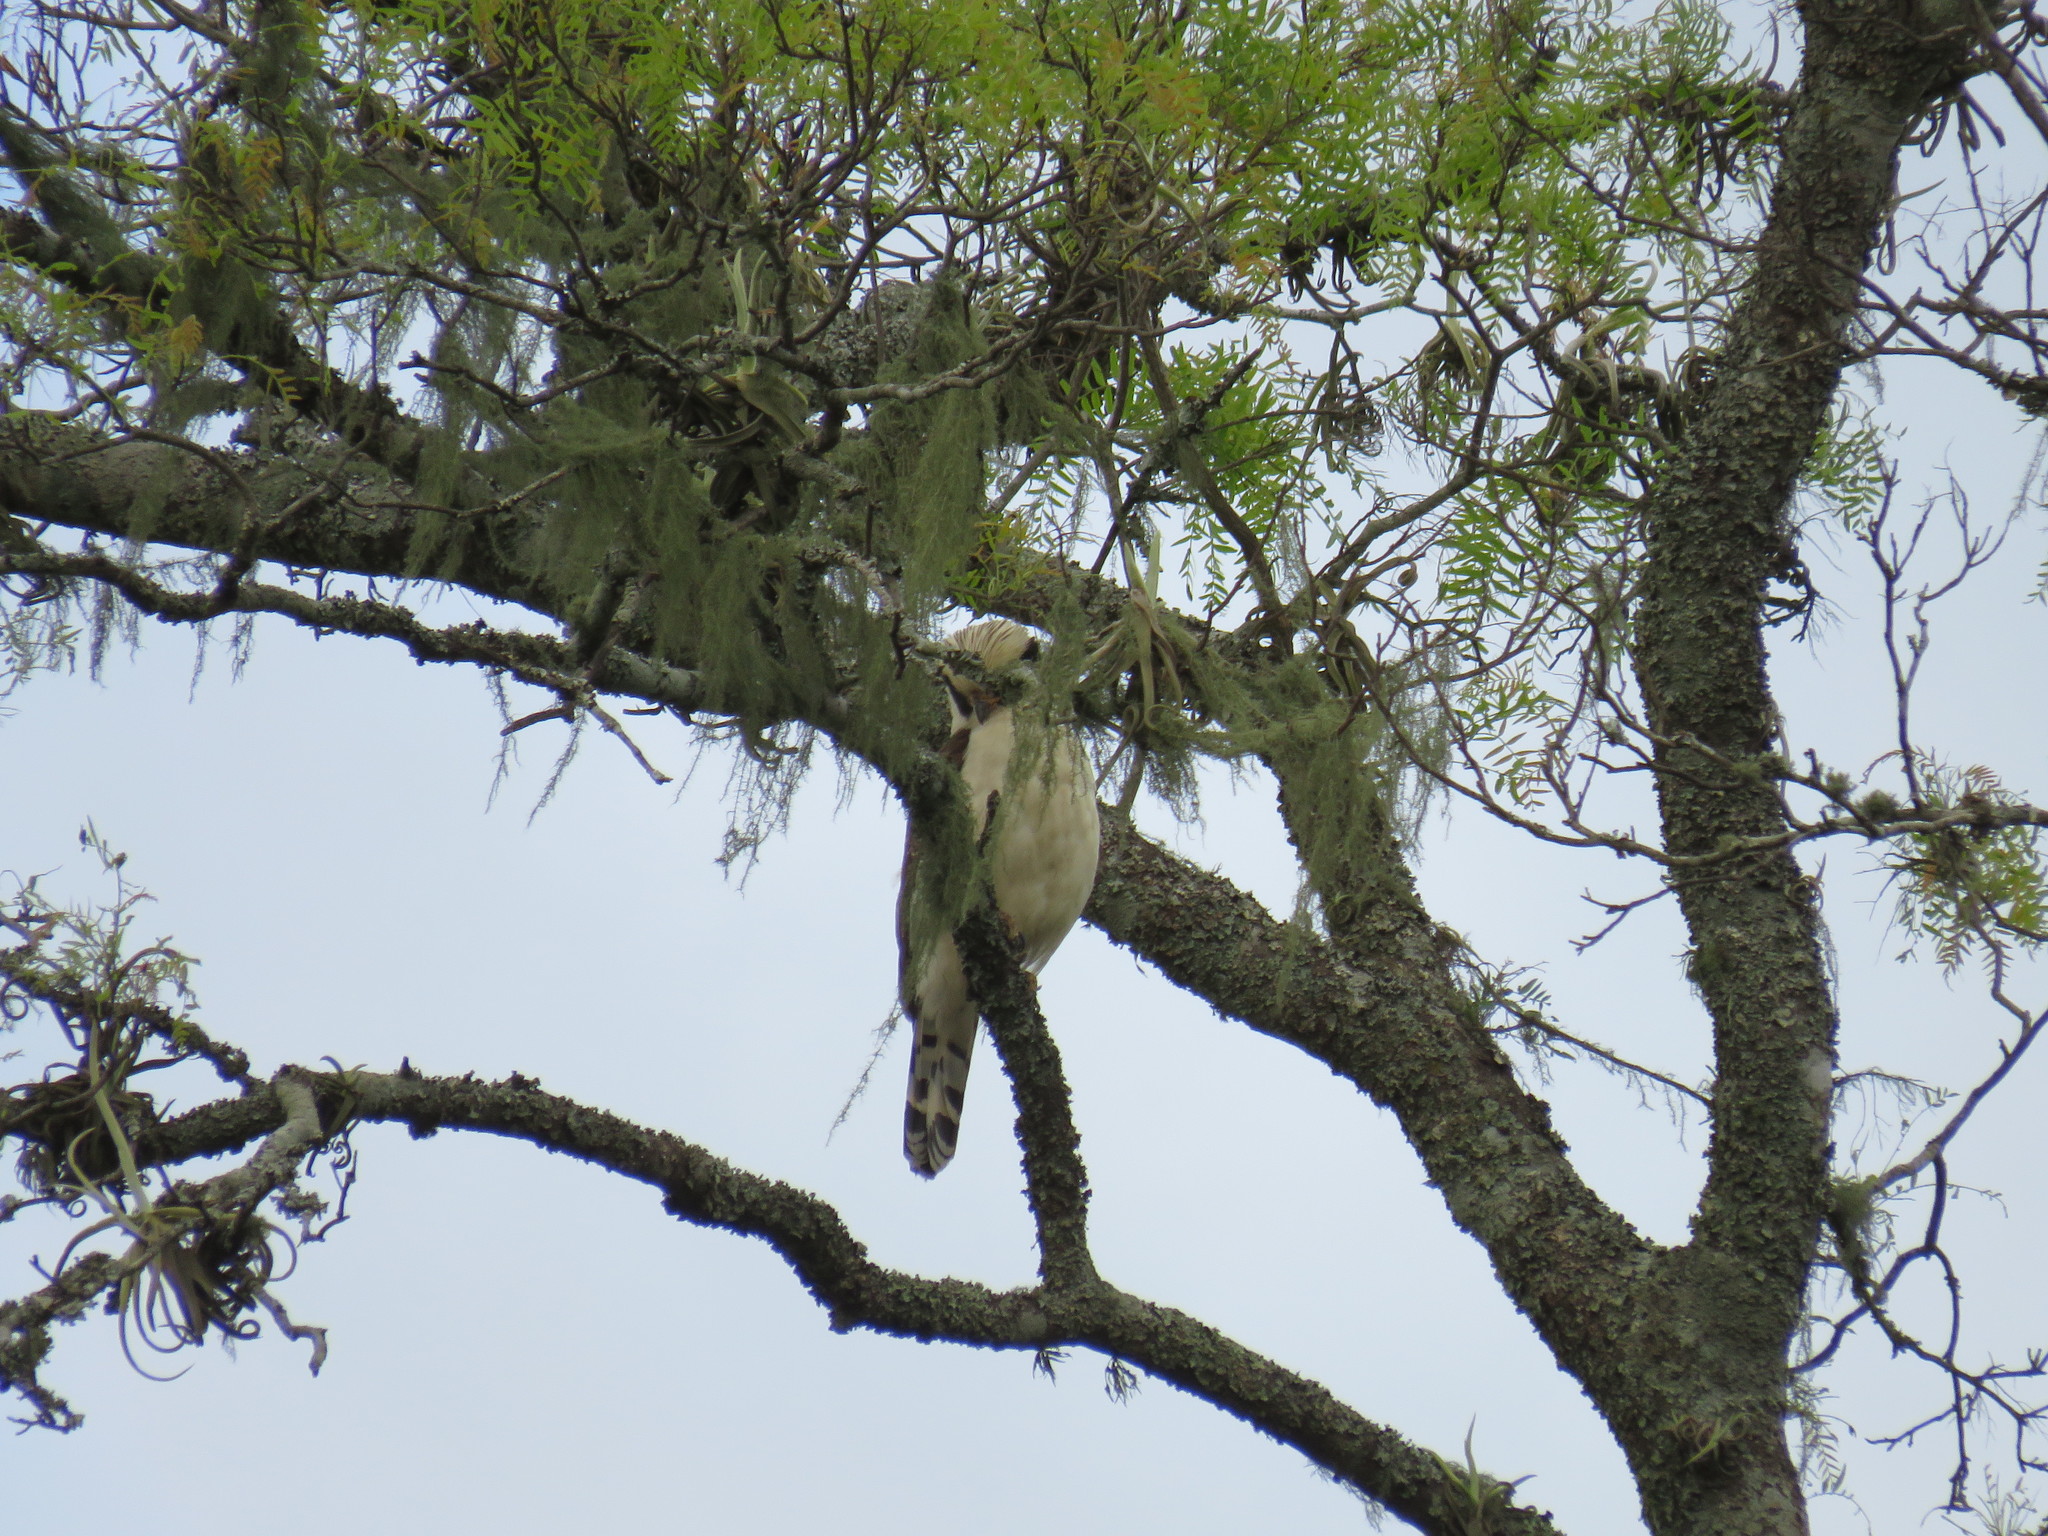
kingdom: Animalia
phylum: Chordata
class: Aves
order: Falconiformes
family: Falconidae
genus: Herpetotheres
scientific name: Herpetotheres cachinnans
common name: Laughing falcon
